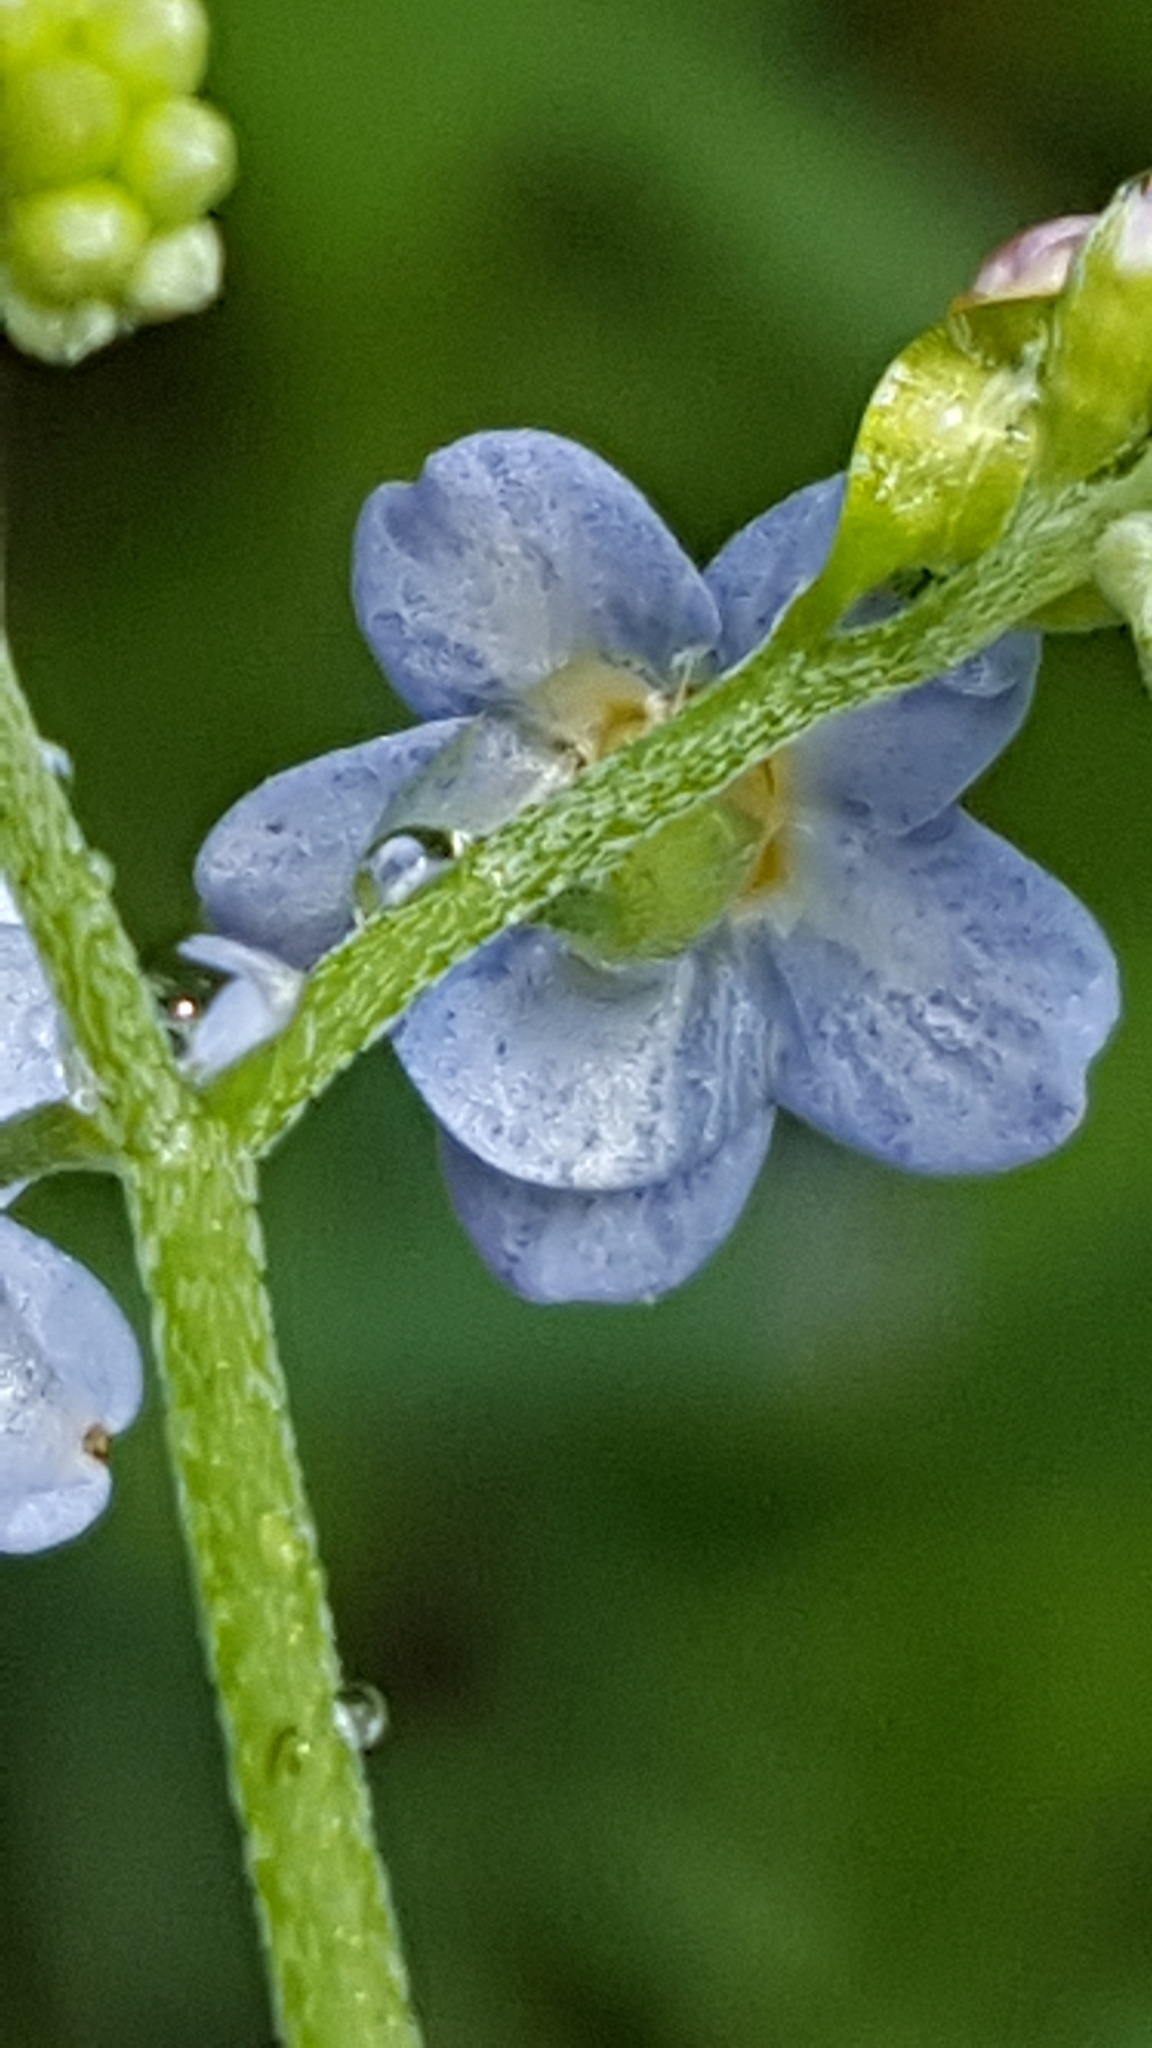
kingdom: Plantae
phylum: Tracheophyta
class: Magnoliopsida
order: Boraginales
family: Boraginaceae
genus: Myosotis
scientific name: Myosotis scorpioides
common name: Water forget-me-not
